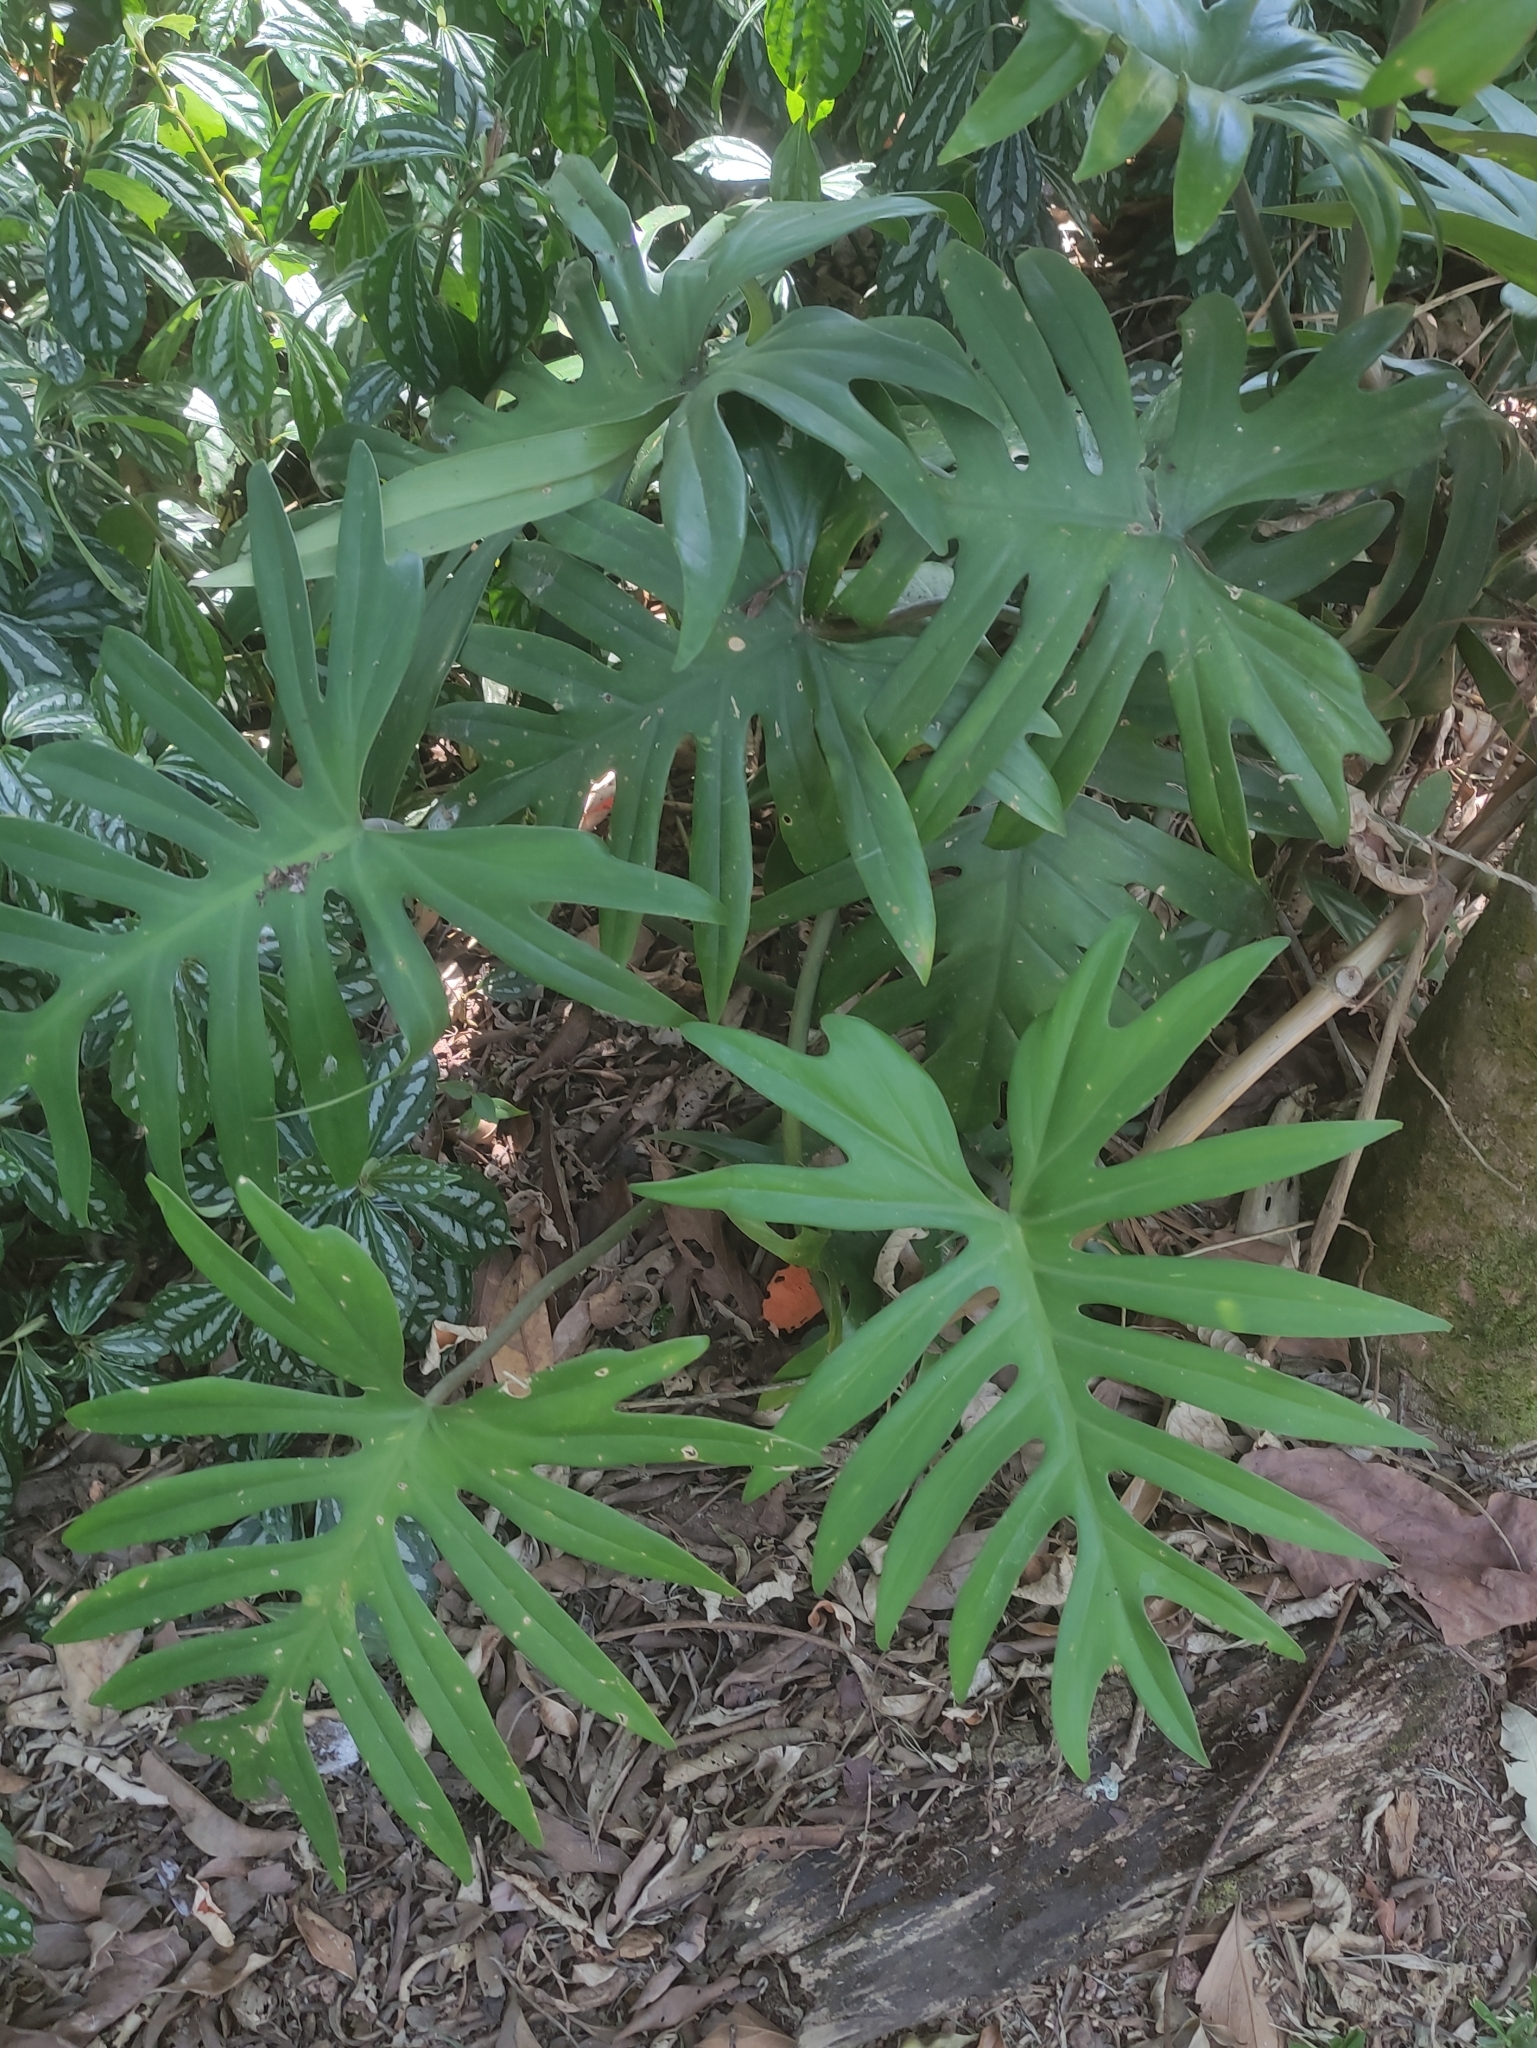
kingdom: Plantae
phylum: Tracheophyta
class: Liliopsida
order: Alismatales
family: Araceae
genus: Philodendron
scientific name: Philodendron mayoi
